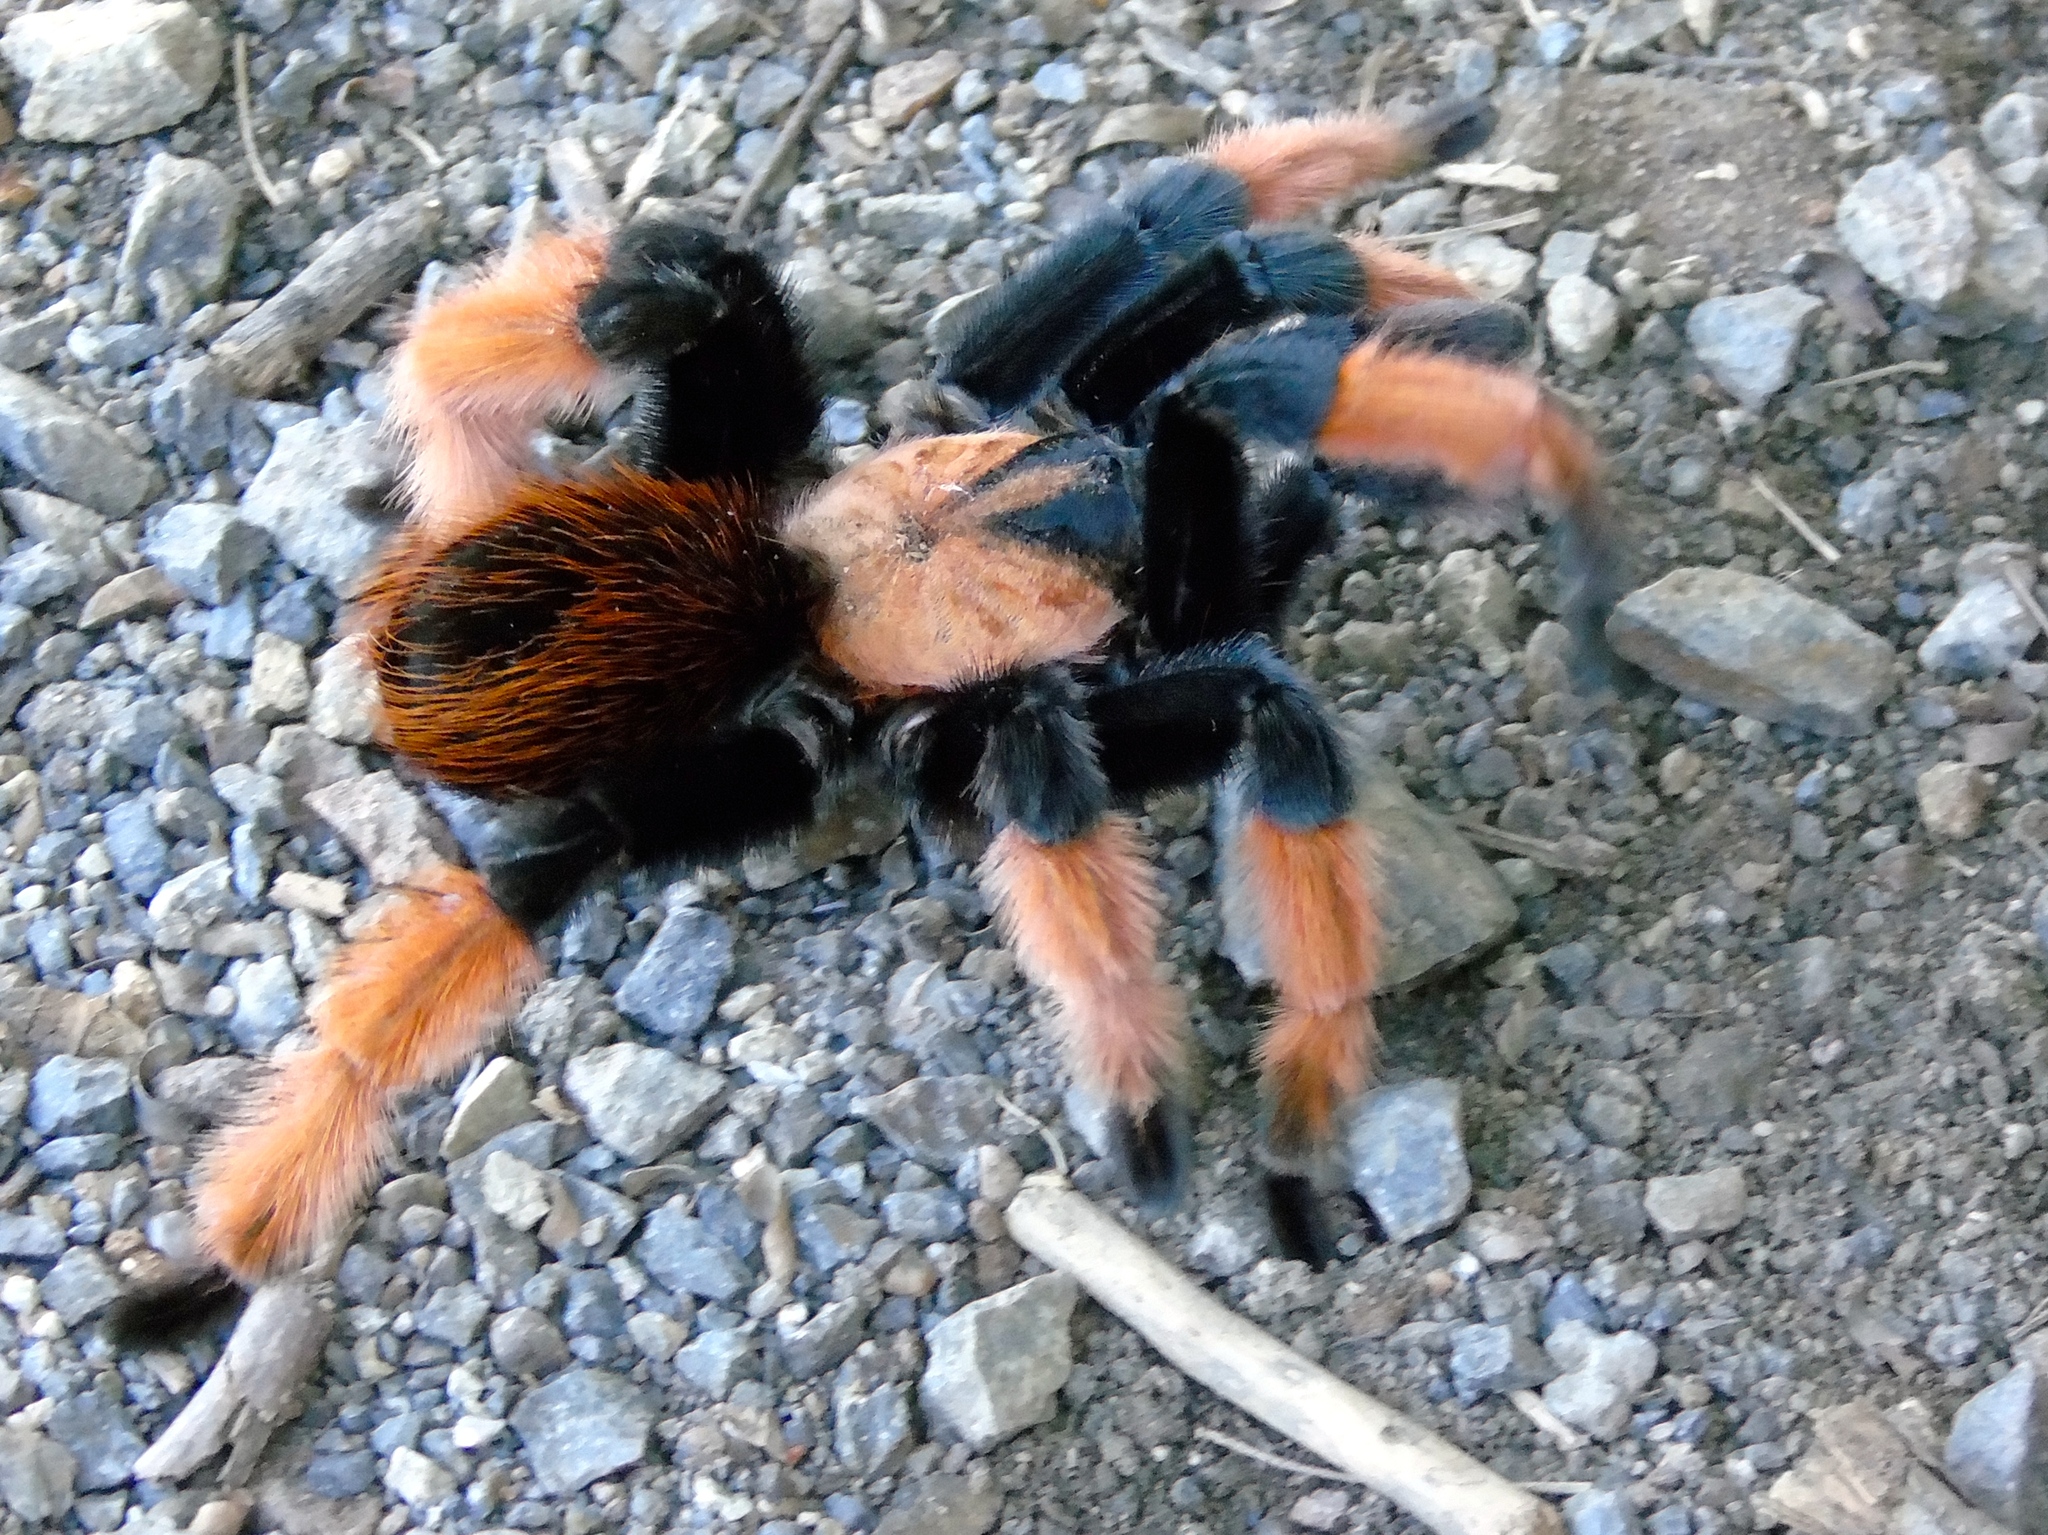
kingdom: Animalia
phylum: Arthropoda
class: Arachnida
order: Araneae
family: Theraphosidae
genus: Brachypelma
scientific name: Brachypelma emilia
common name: Mexican redleg
